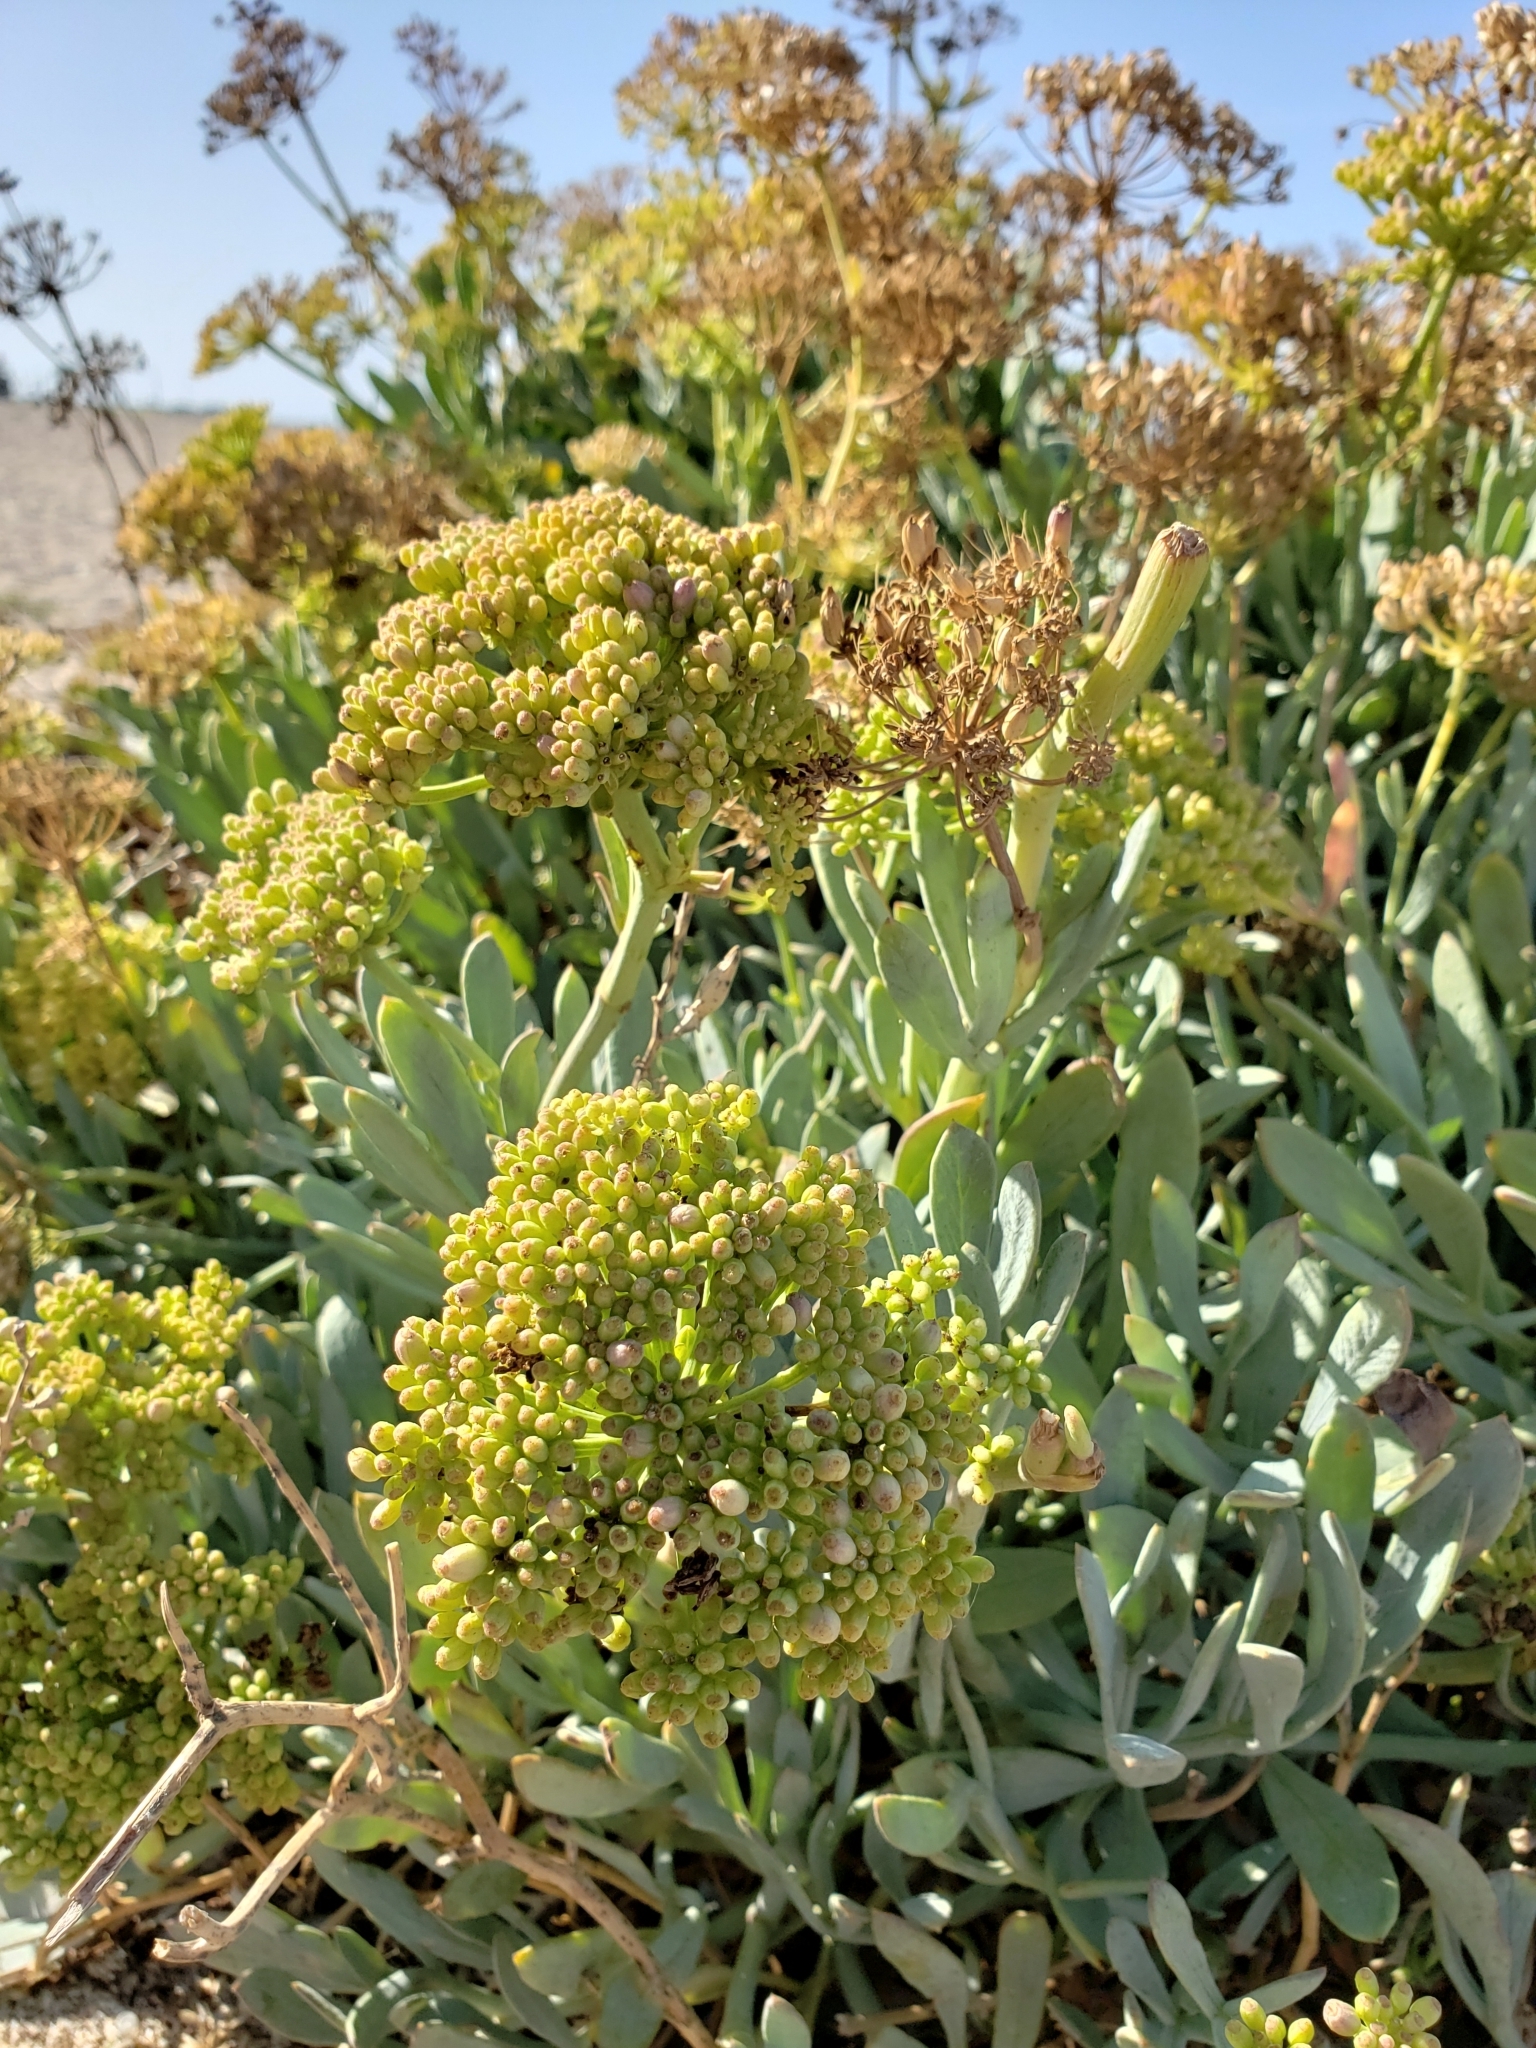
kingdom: Plantae
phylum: Tracheophyta
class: Magnoliopsida
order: Apiales
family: Apiaceae
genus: Crithmum
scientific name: Crithmum maritimum
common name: Rock samphire
